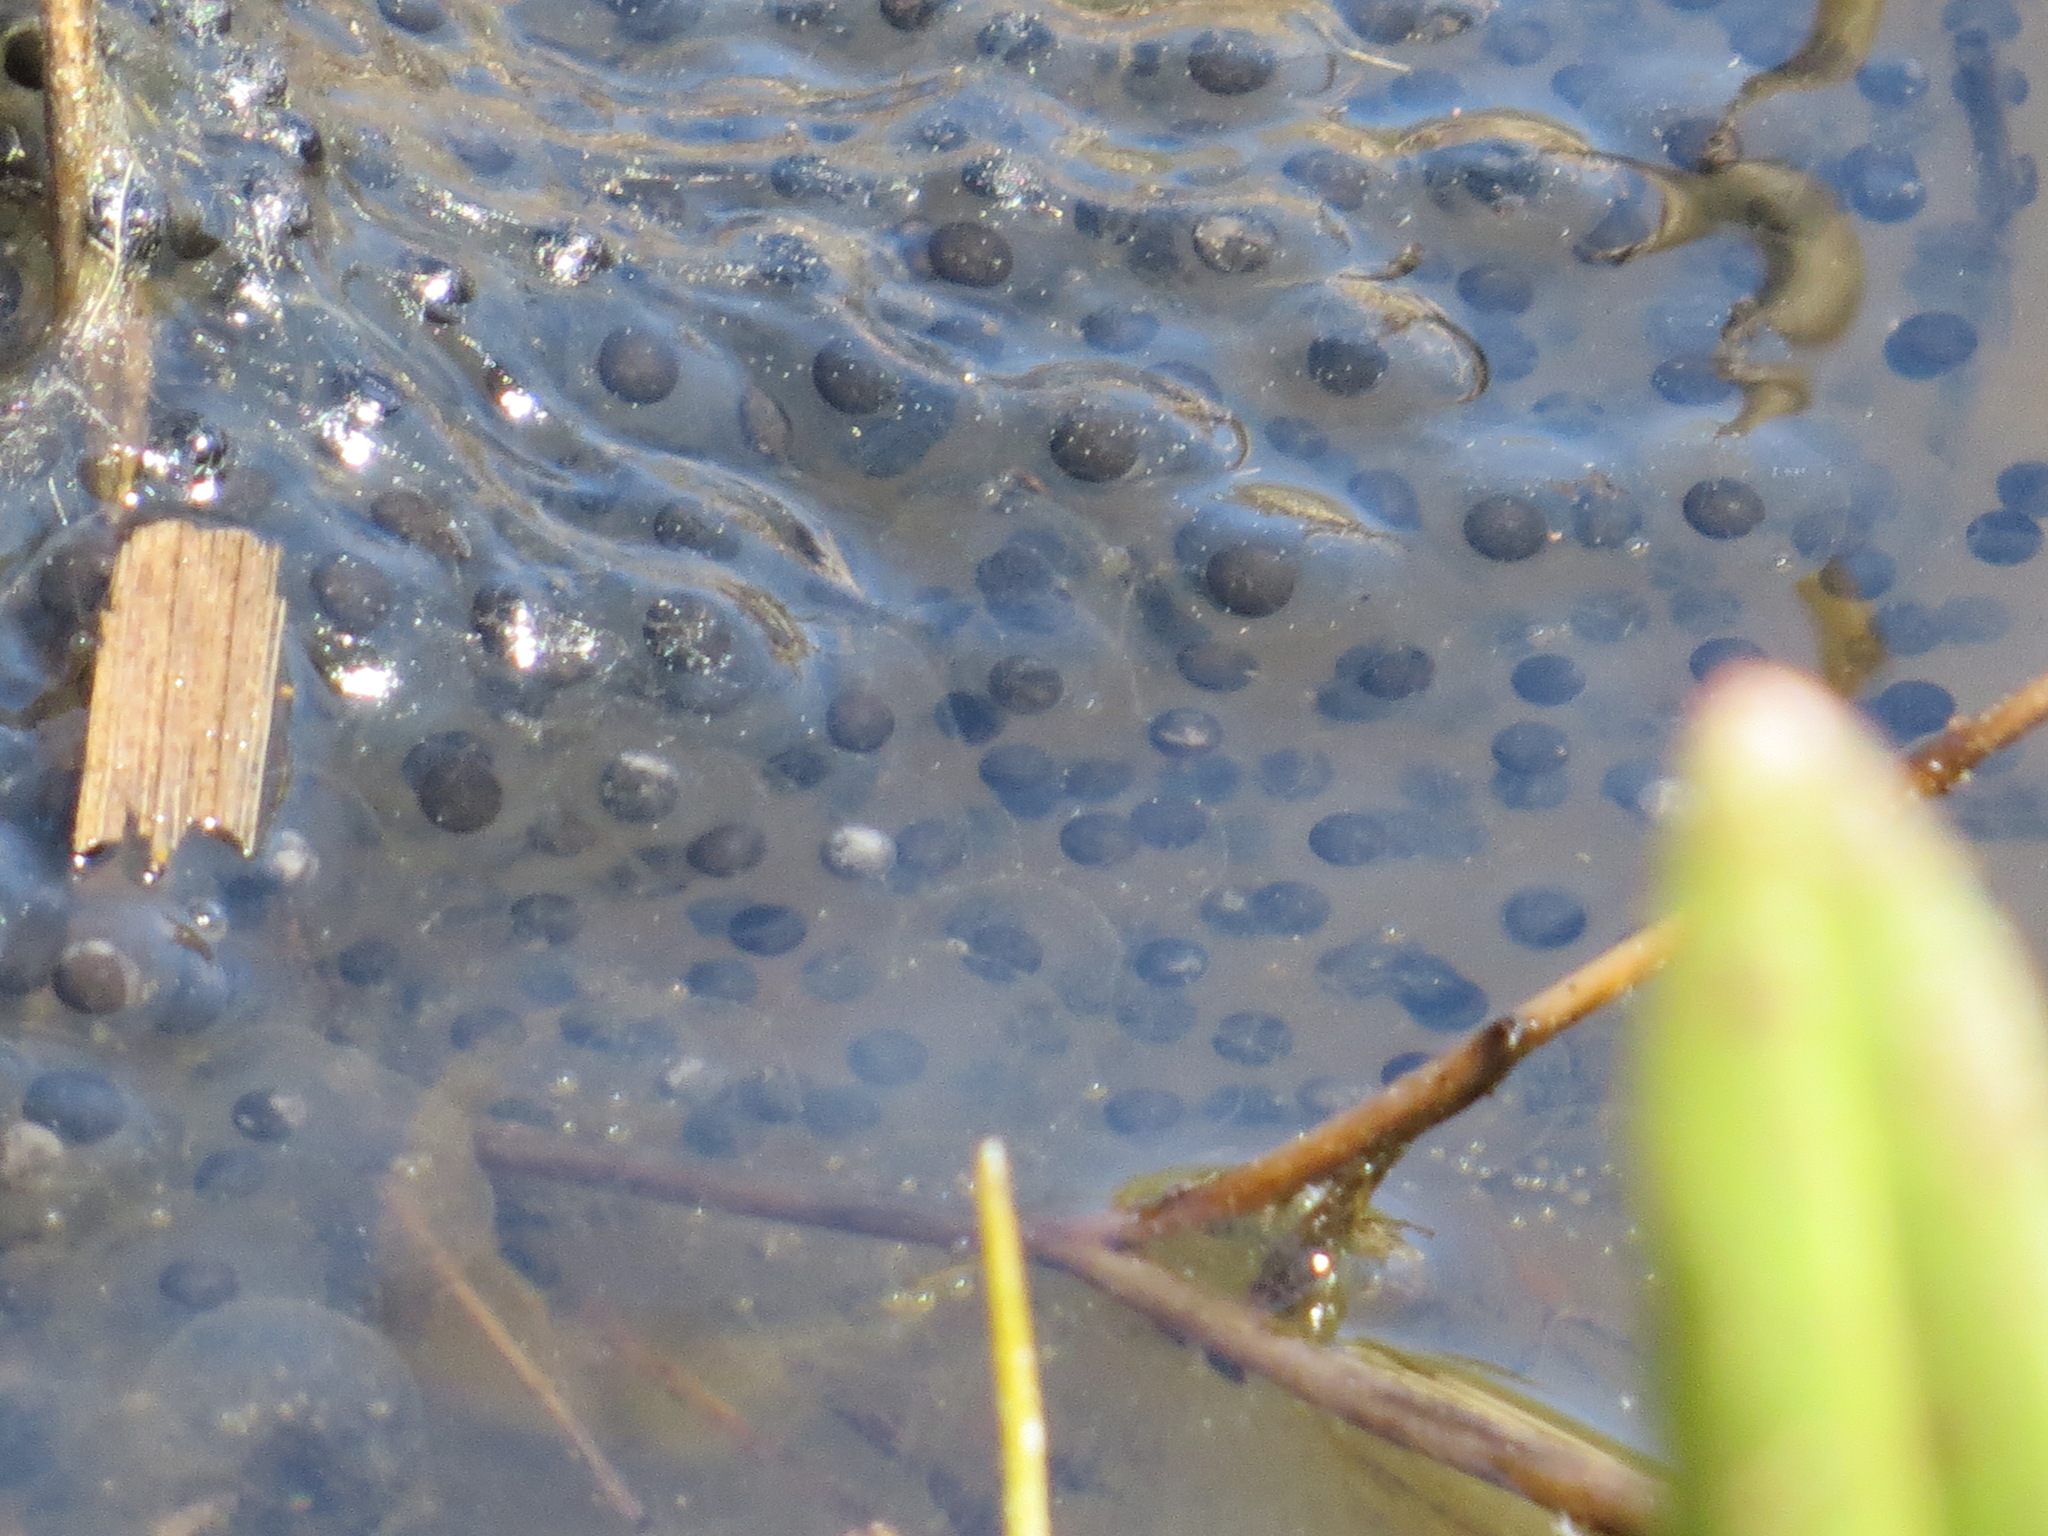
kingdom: Animalia
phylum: Chordata
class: Amphibia
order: Anura
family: Ranidae
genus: Rana
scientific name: Rana draytonii
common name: California red-legged frog
